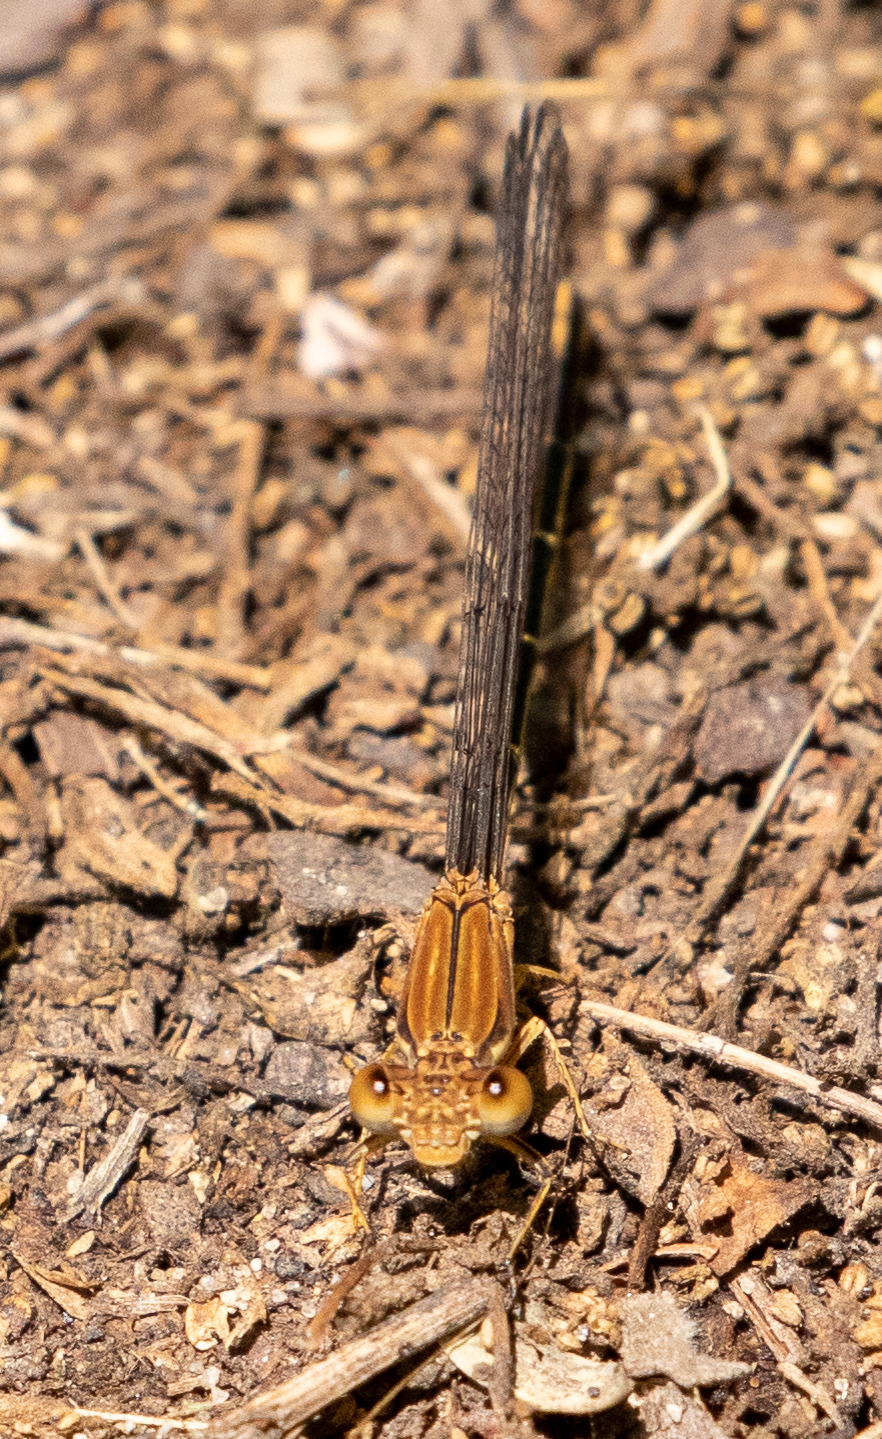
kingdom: Animalia
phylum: Arthropoda
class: Insecta
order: Odonata
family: Coenagrionidae
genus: Argia
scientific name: Argia moesta
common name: Powdered dancer
